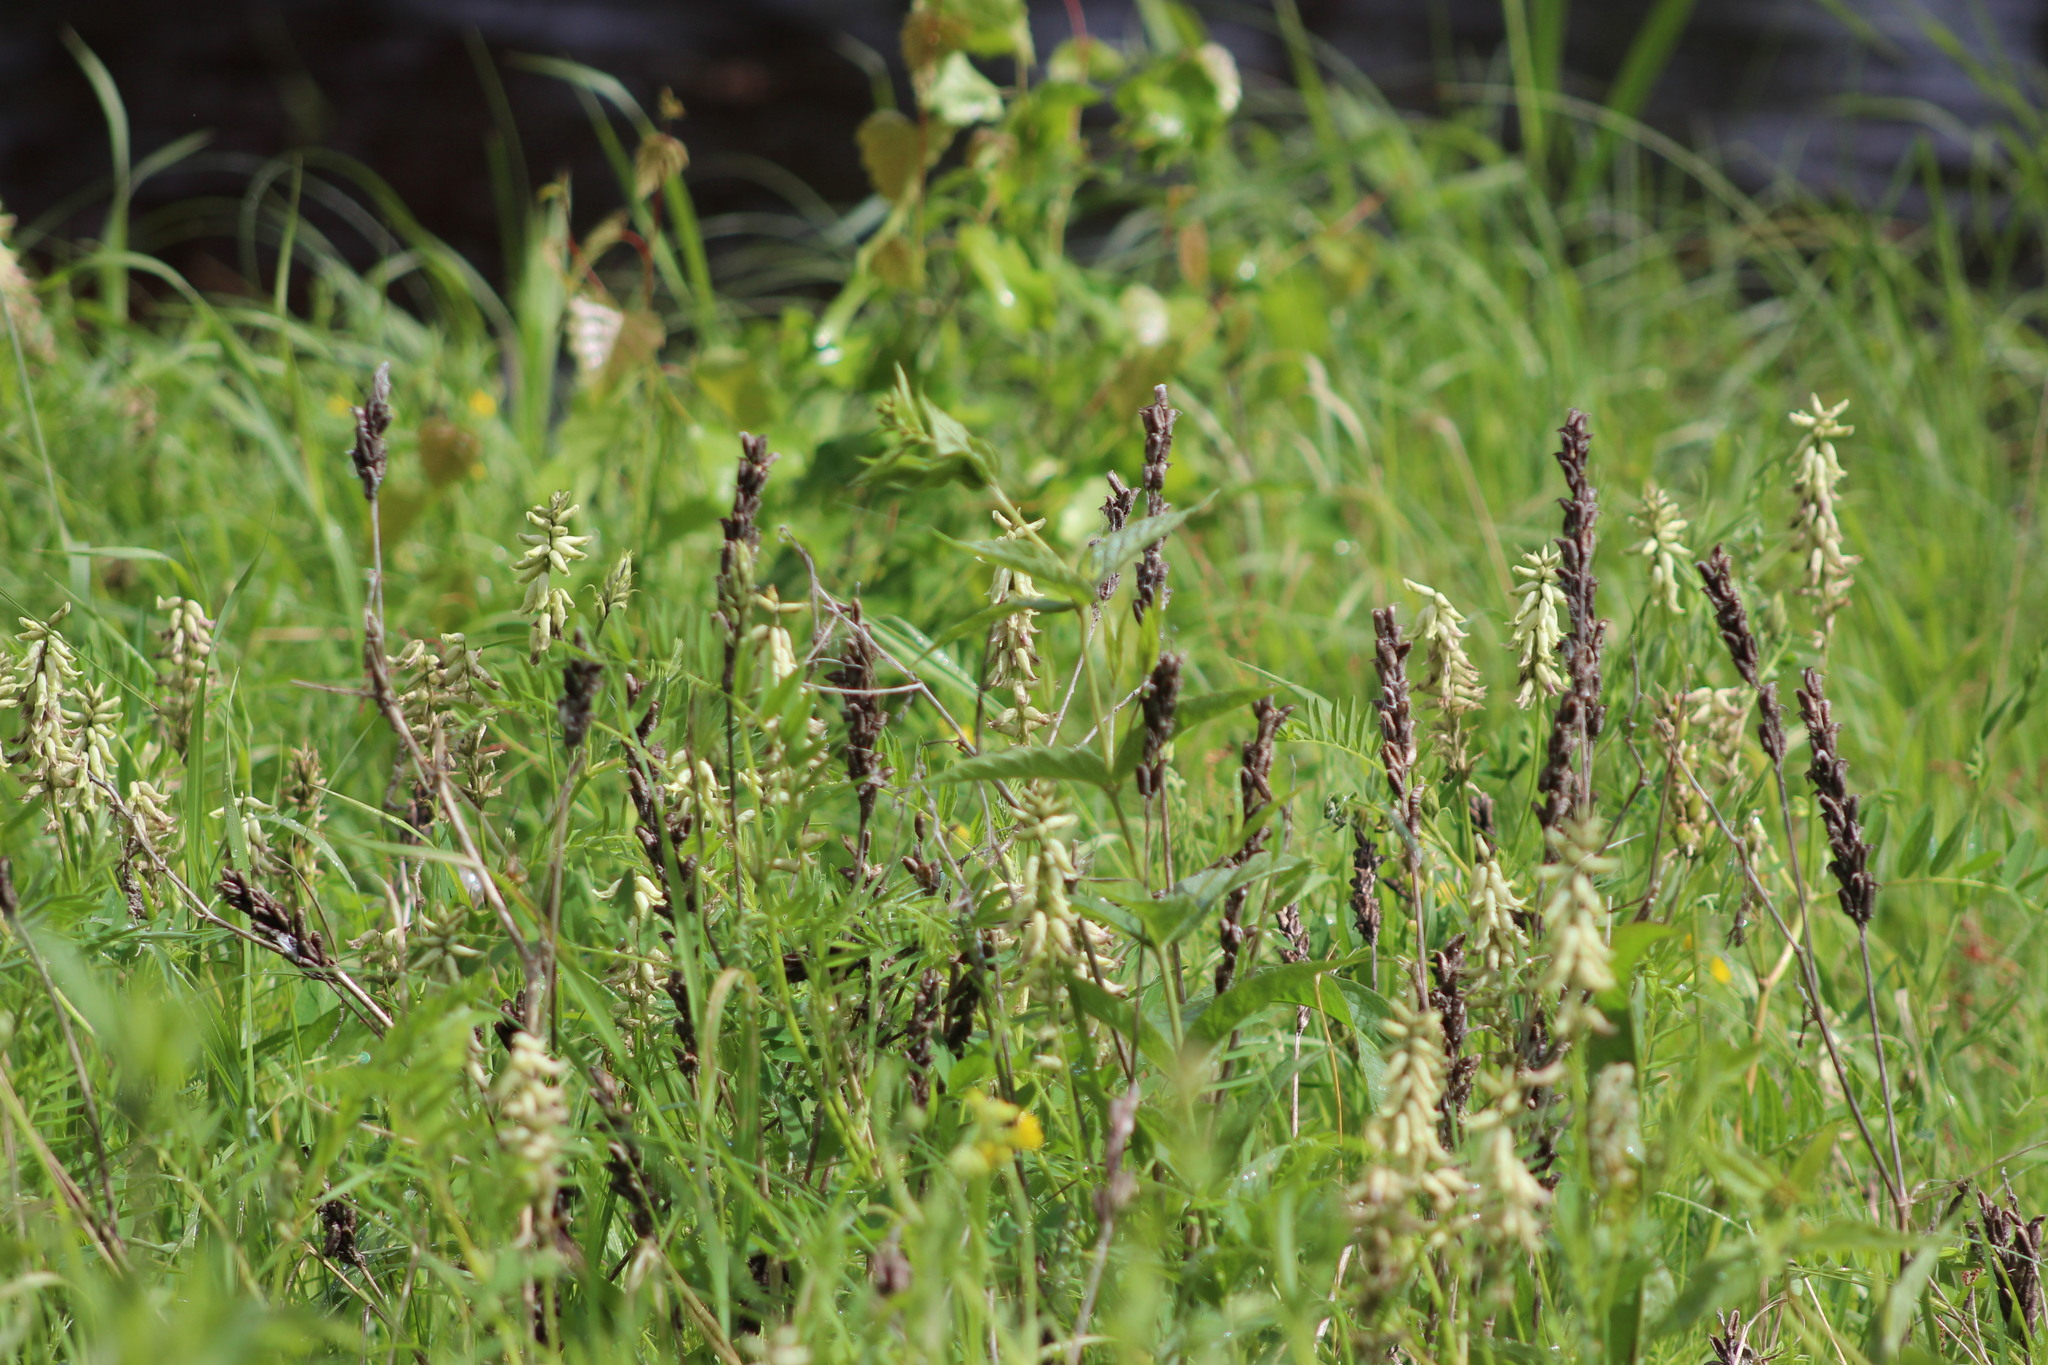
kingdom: Plantae
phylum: Tracheophyta
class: Magnoliopsida
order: Fabales
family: Fabaceae
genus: Astragalus
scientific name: Astragalus uliginosus
